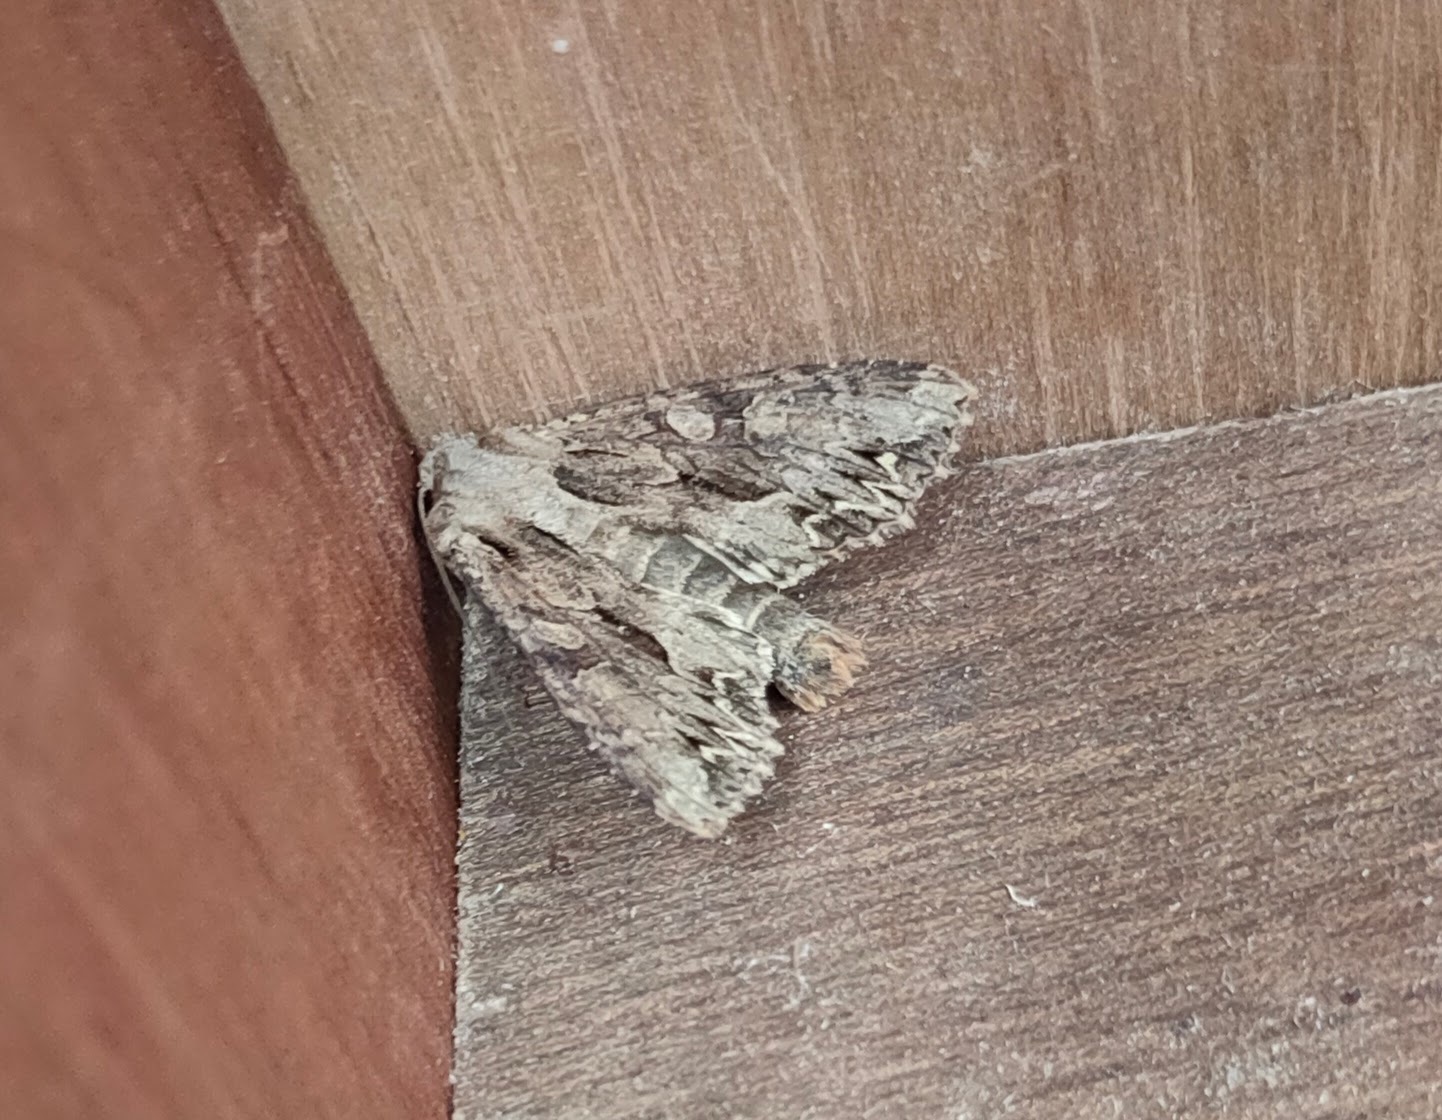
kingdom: Animalia
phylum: Arthropoda
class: Insecta
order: Lepidoptera
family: Noctuidae
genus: Apamea
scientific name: Apamea monoglypha
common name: Dark arches
